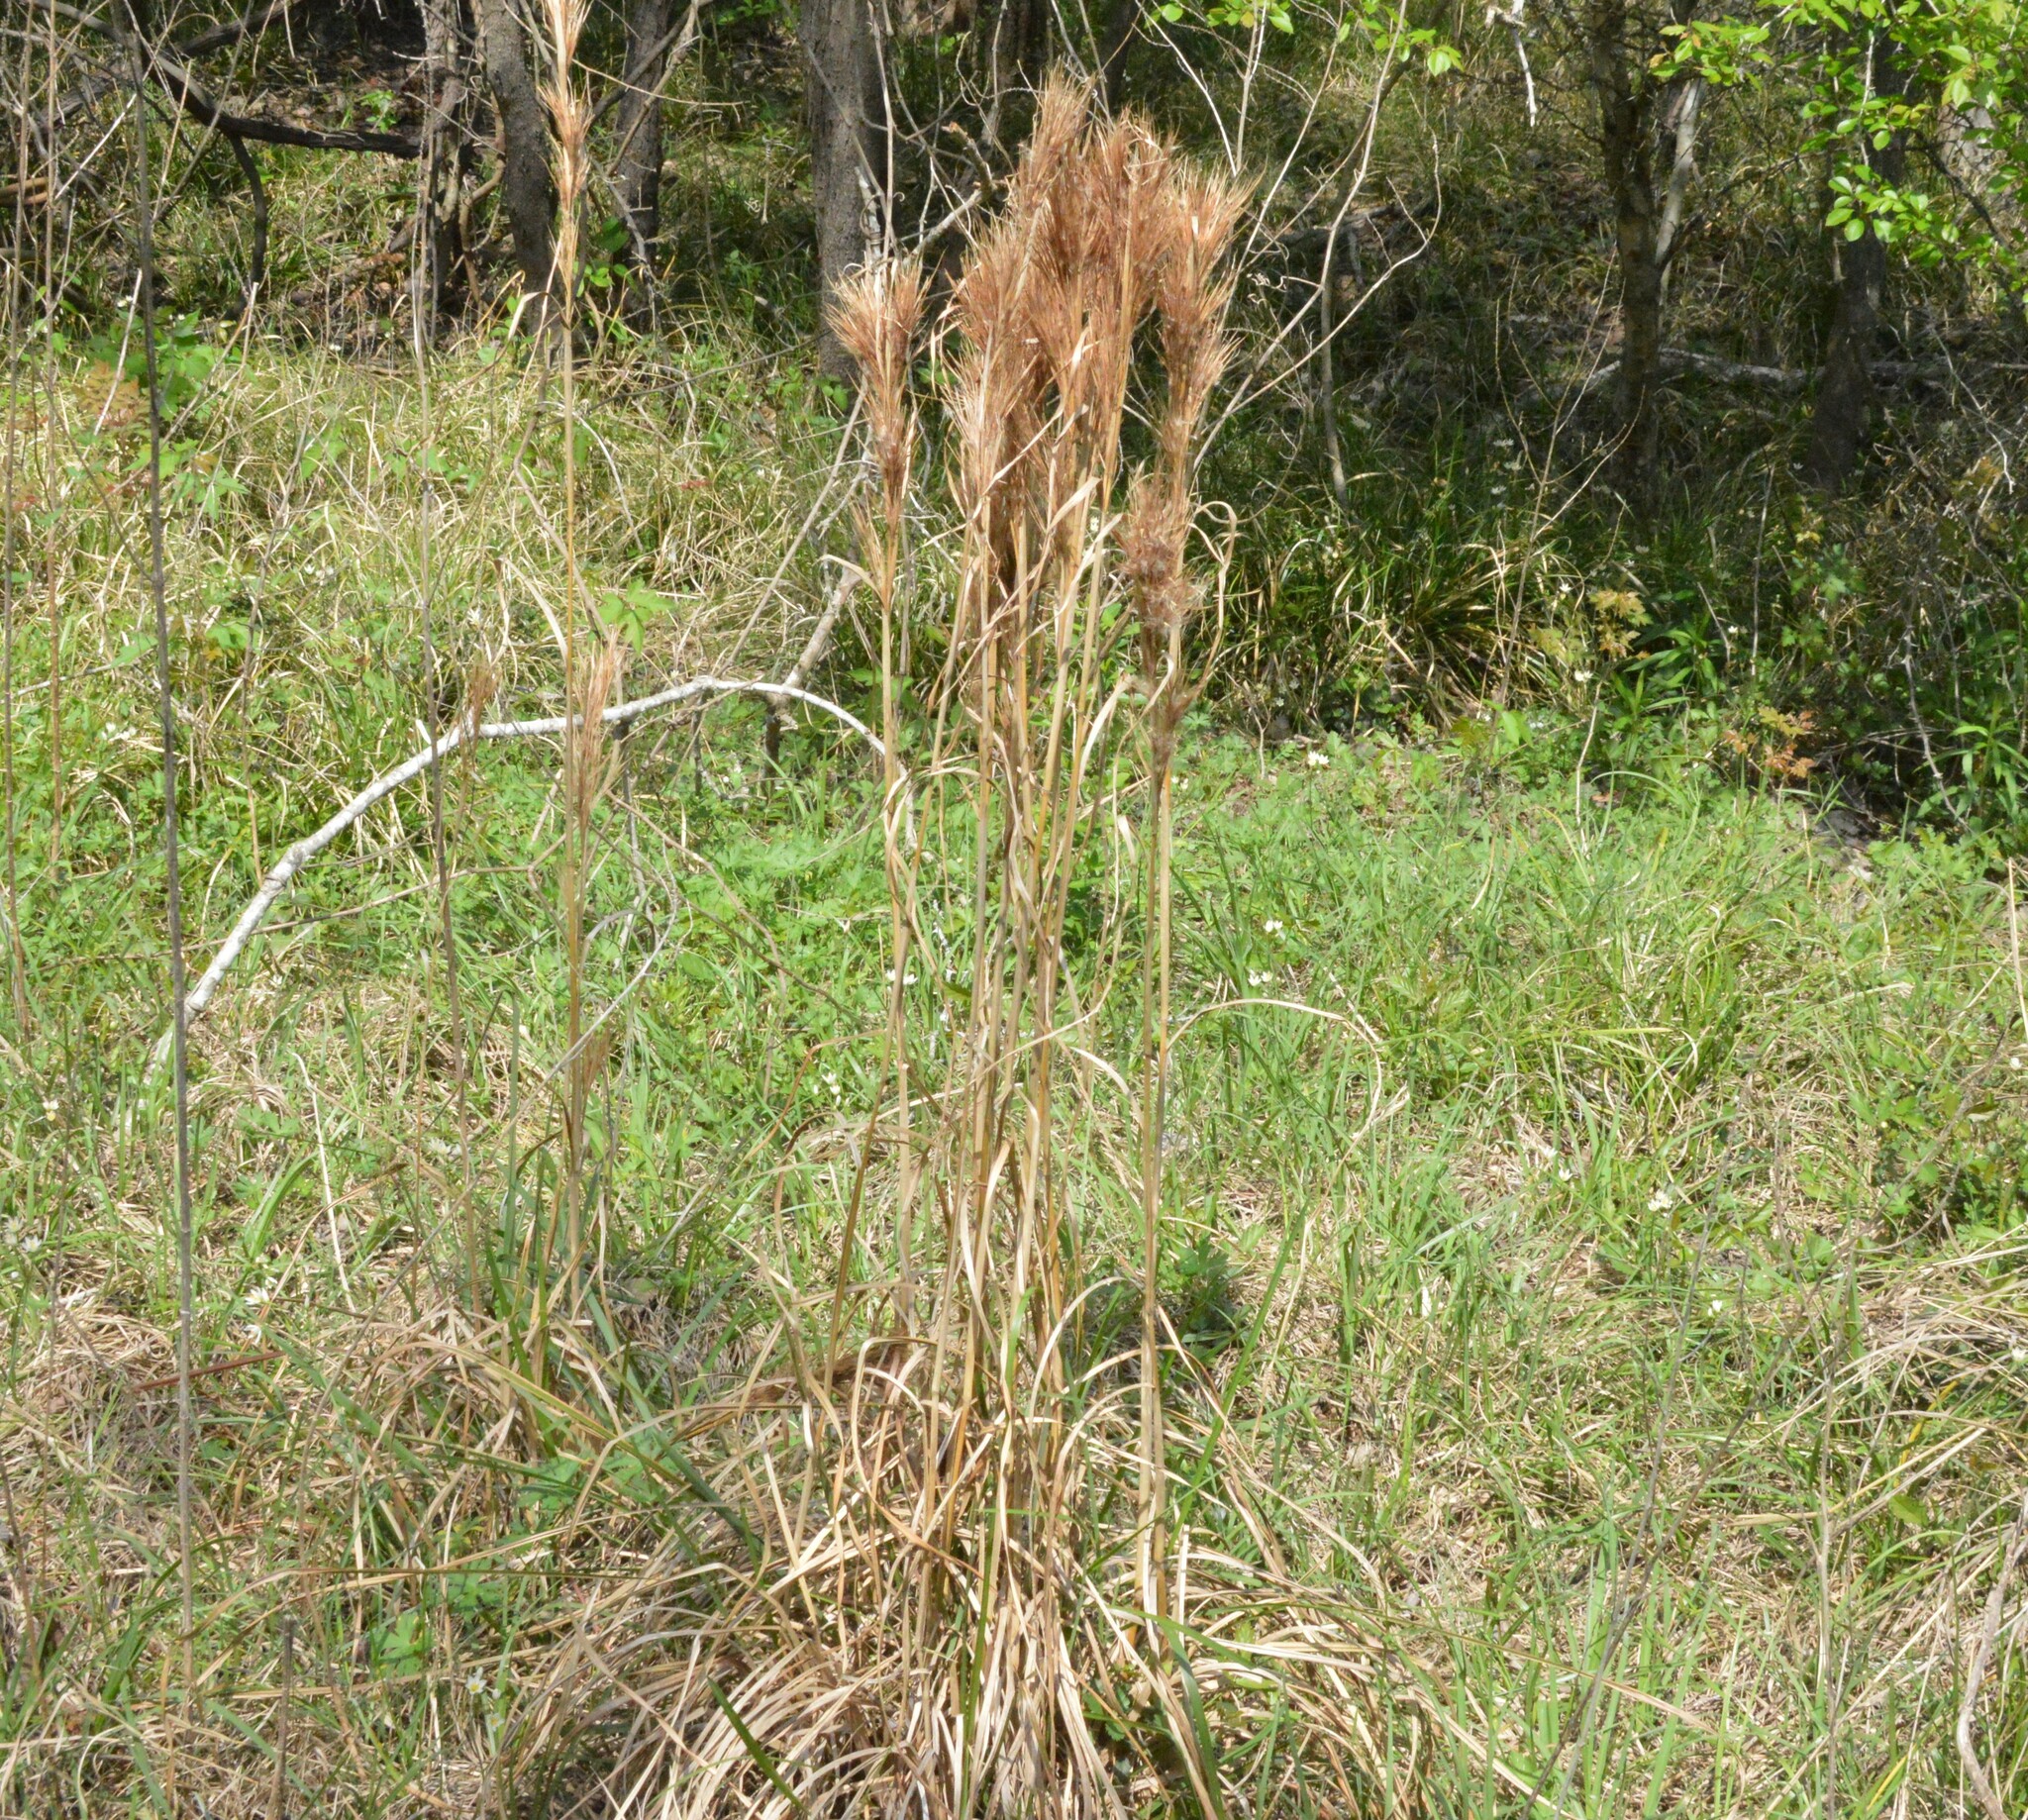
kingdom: Plantae
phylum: Tracheophyta
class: Liliopsida
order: Poales
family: Poaceae
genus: Andropogon
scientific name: Andropogon tenuispatheus
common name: Bushy bluestem
